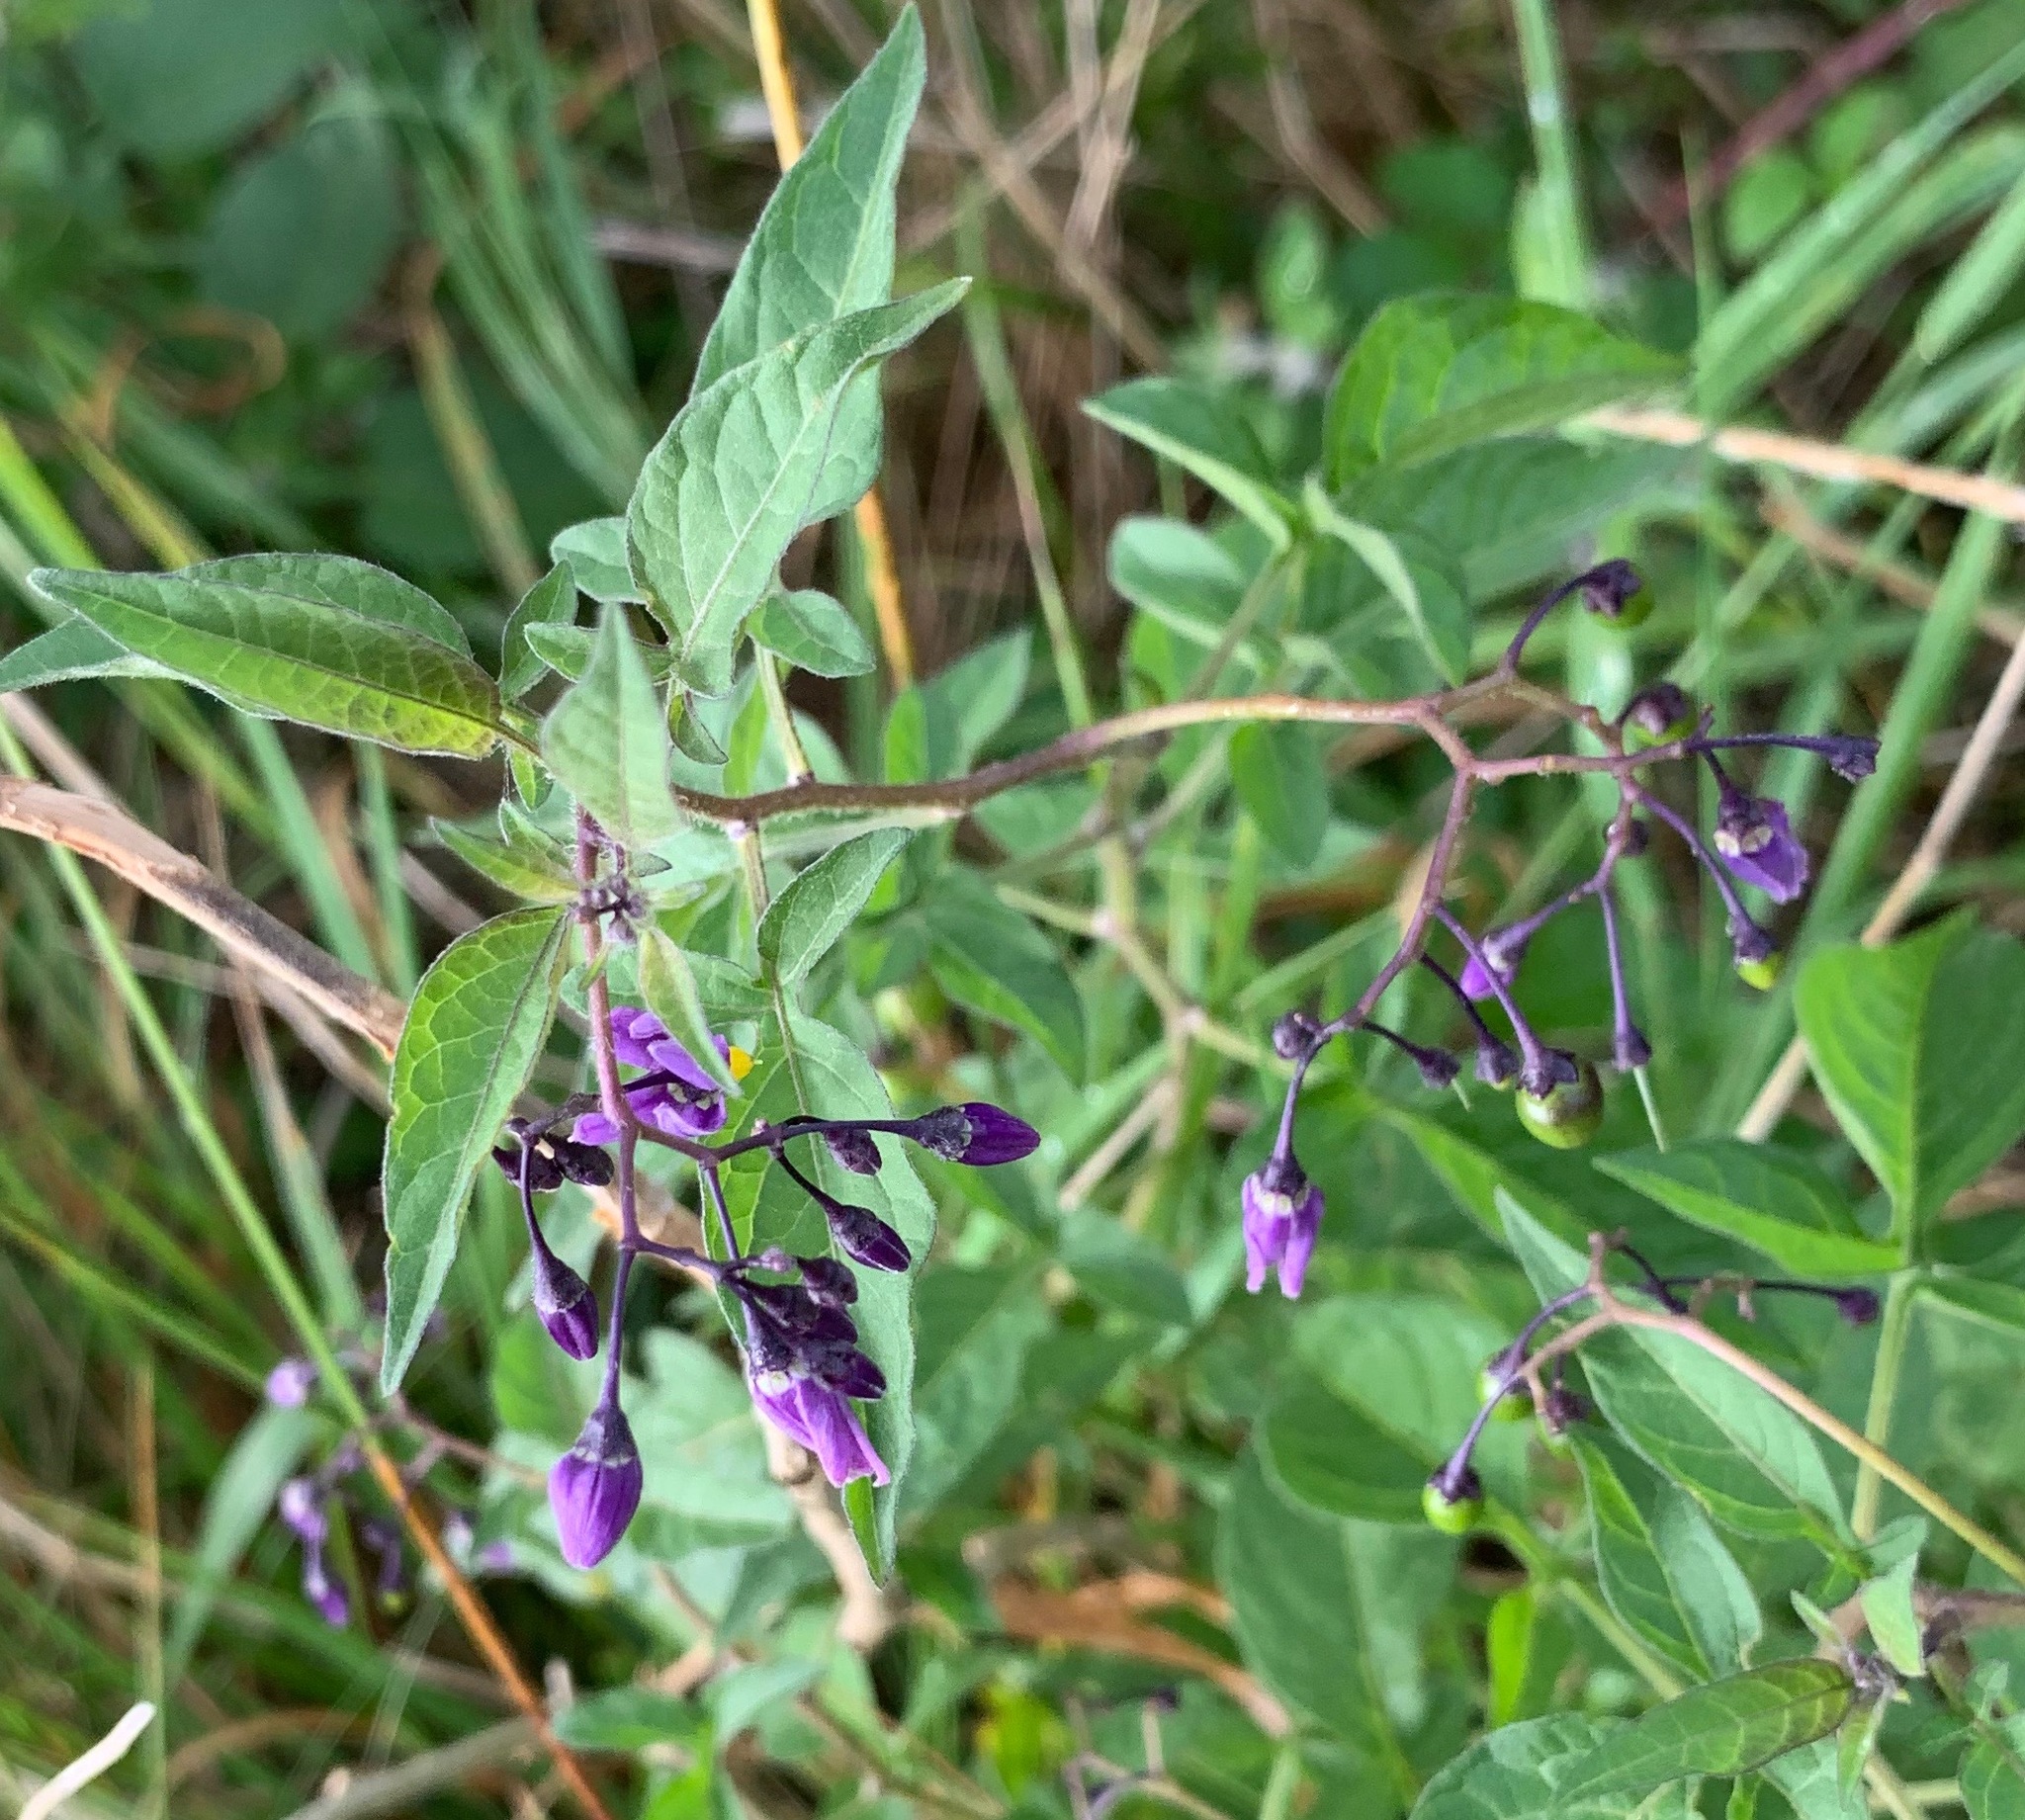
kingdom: Plantae
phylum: Tracheophyta
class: Magnoliopsida
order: Solanales
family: Solanaceae
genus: Solanum
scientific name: Solanum dulcamara
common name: Climbing nightshade
